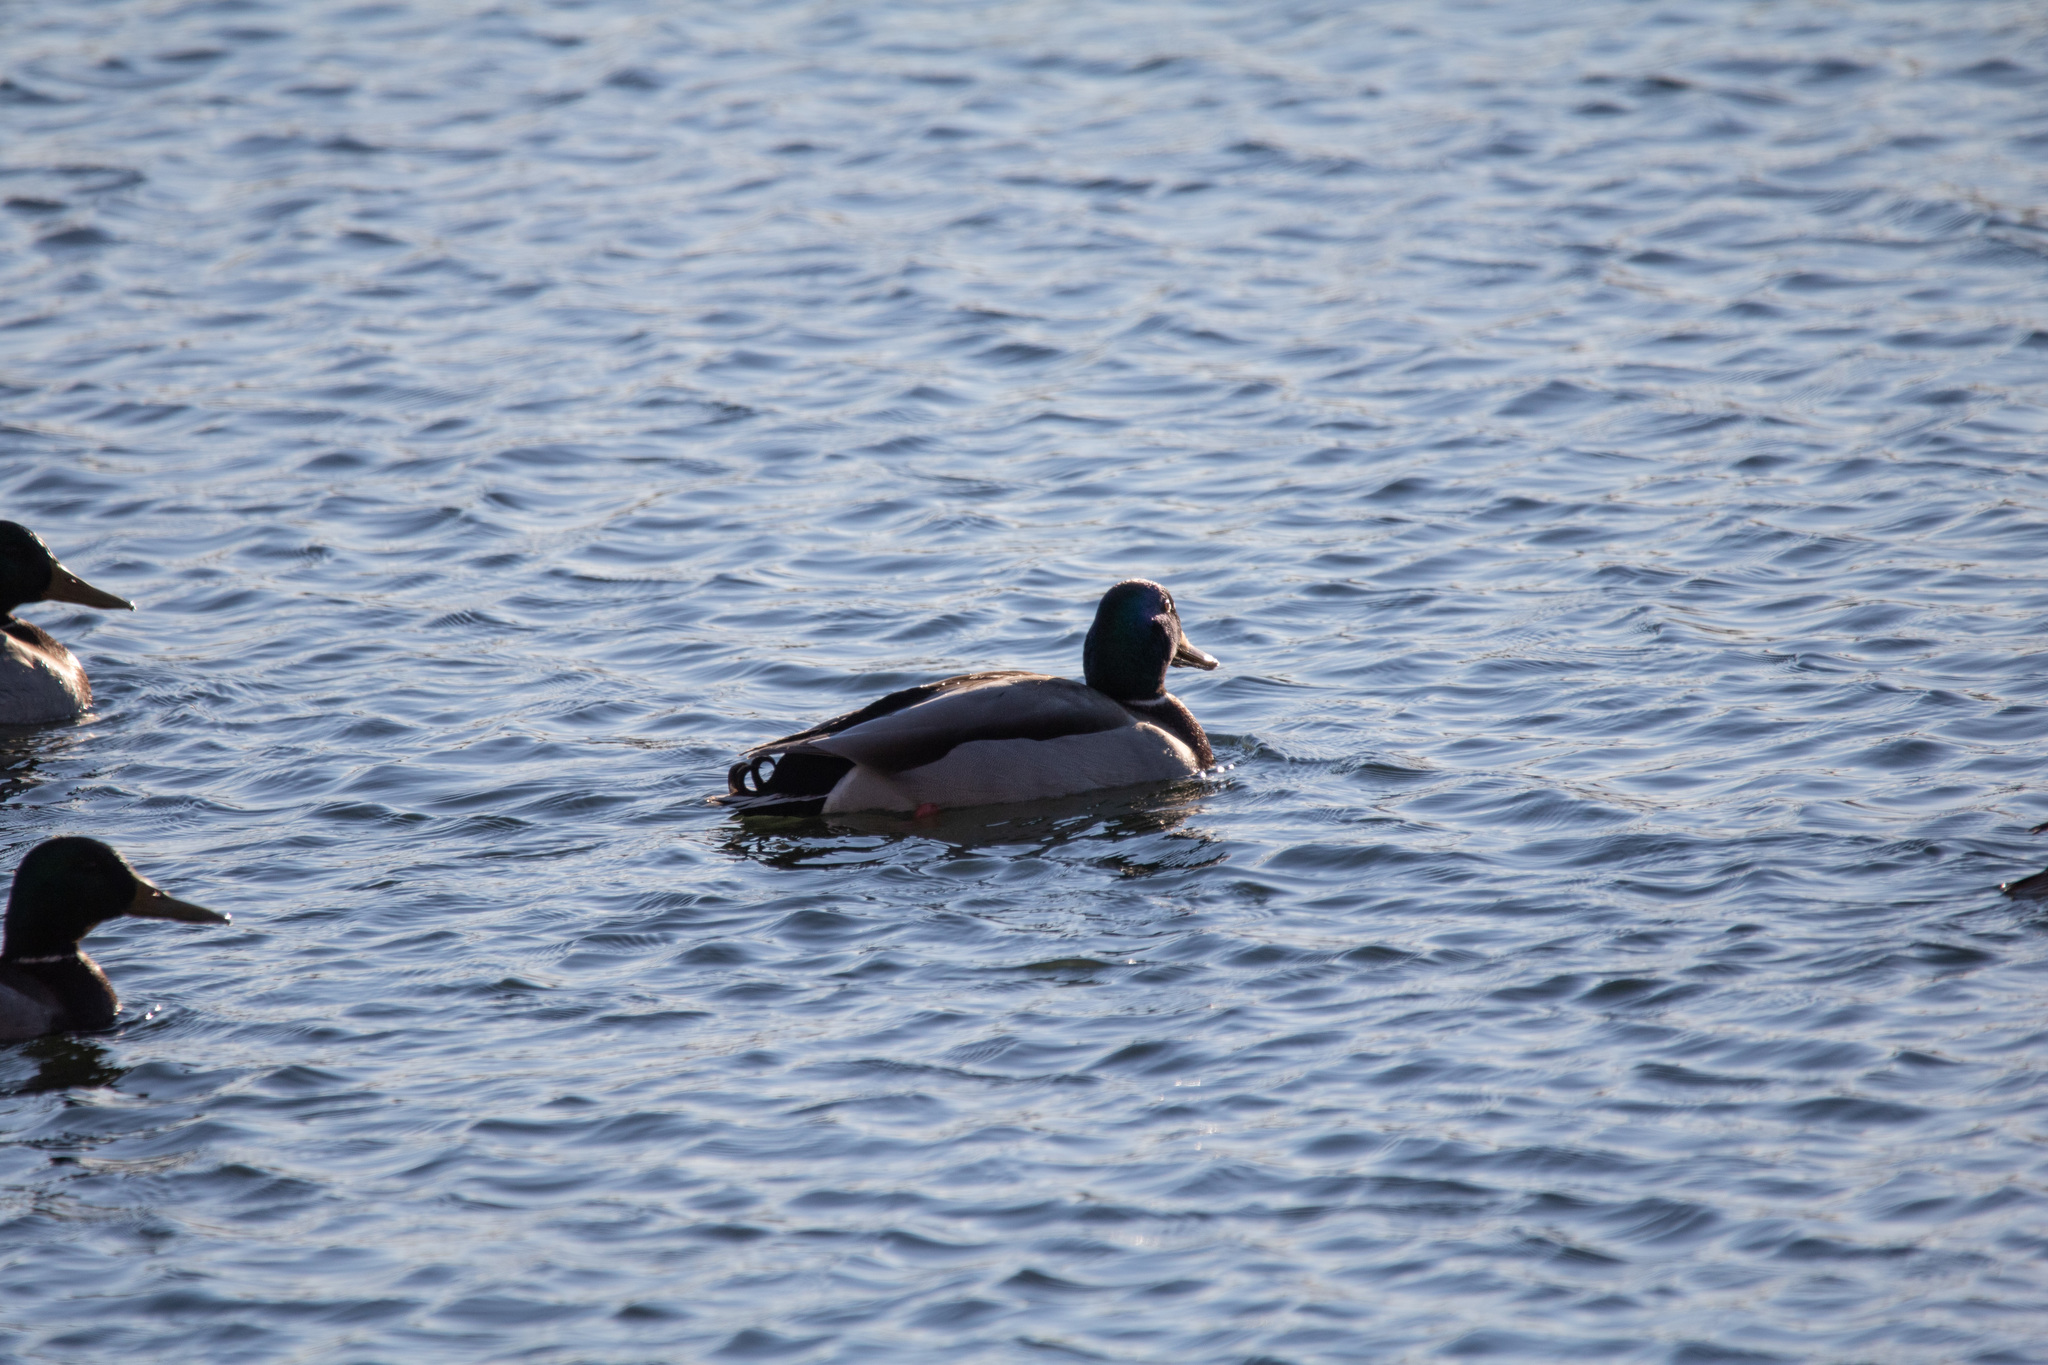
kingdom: Animalia
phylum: Chordata
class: Aves
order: Anseriformes
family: Anatidae
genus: Anas
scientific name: Anas platyrhynchos
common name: Mallard
